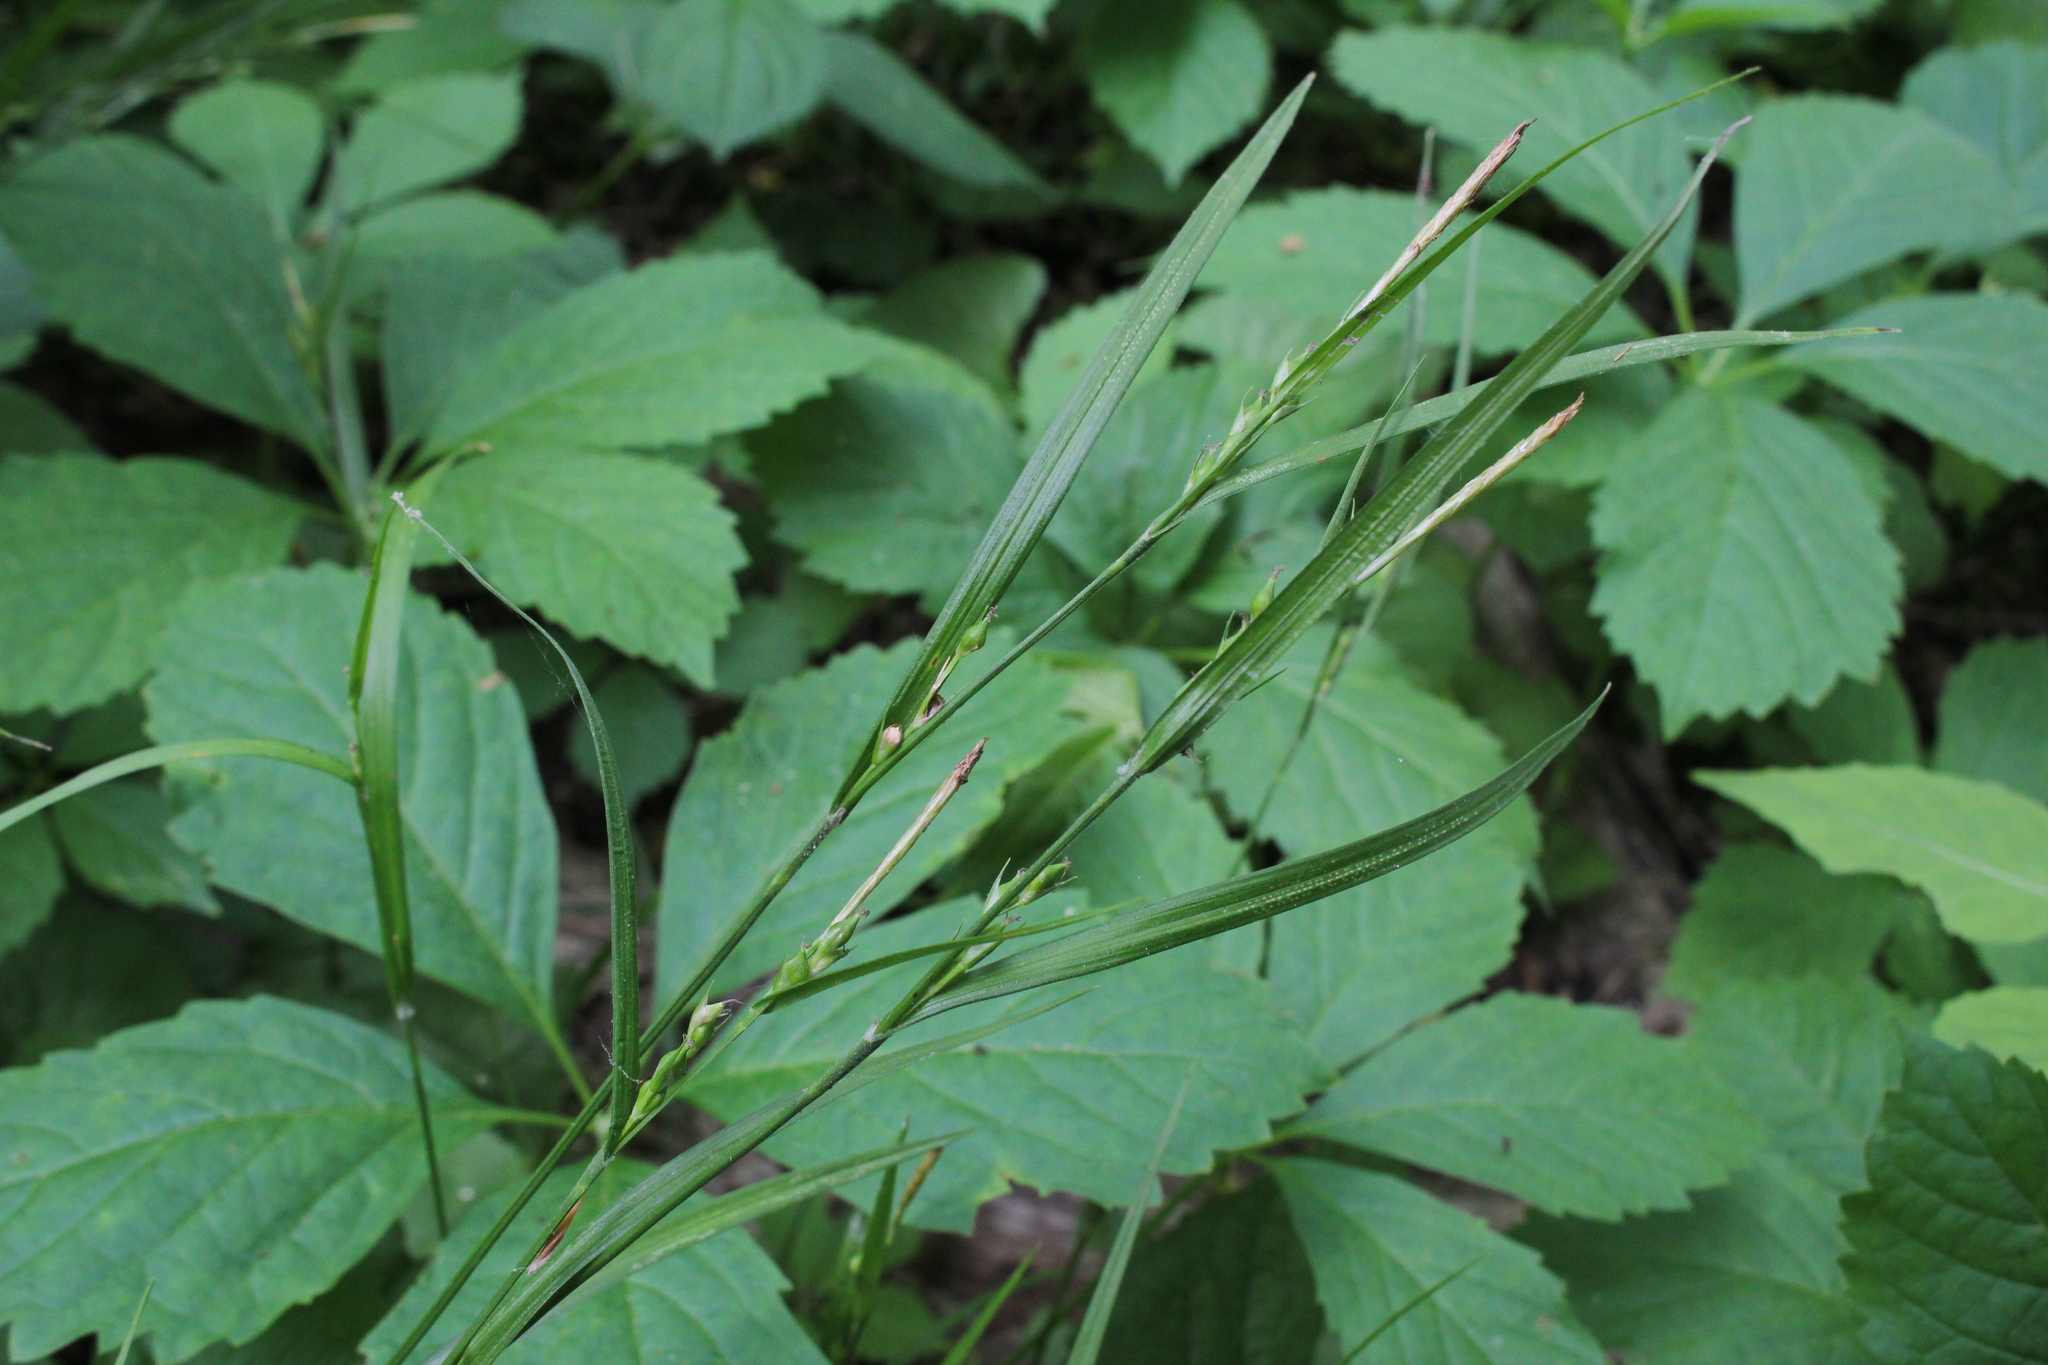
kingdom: Plantae
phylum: Tracheophyta
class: Liliopsida
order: Poales
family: Cyperaceae
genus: Carex
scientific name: Carex hitchcockiana
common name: Hairy grey sedge
